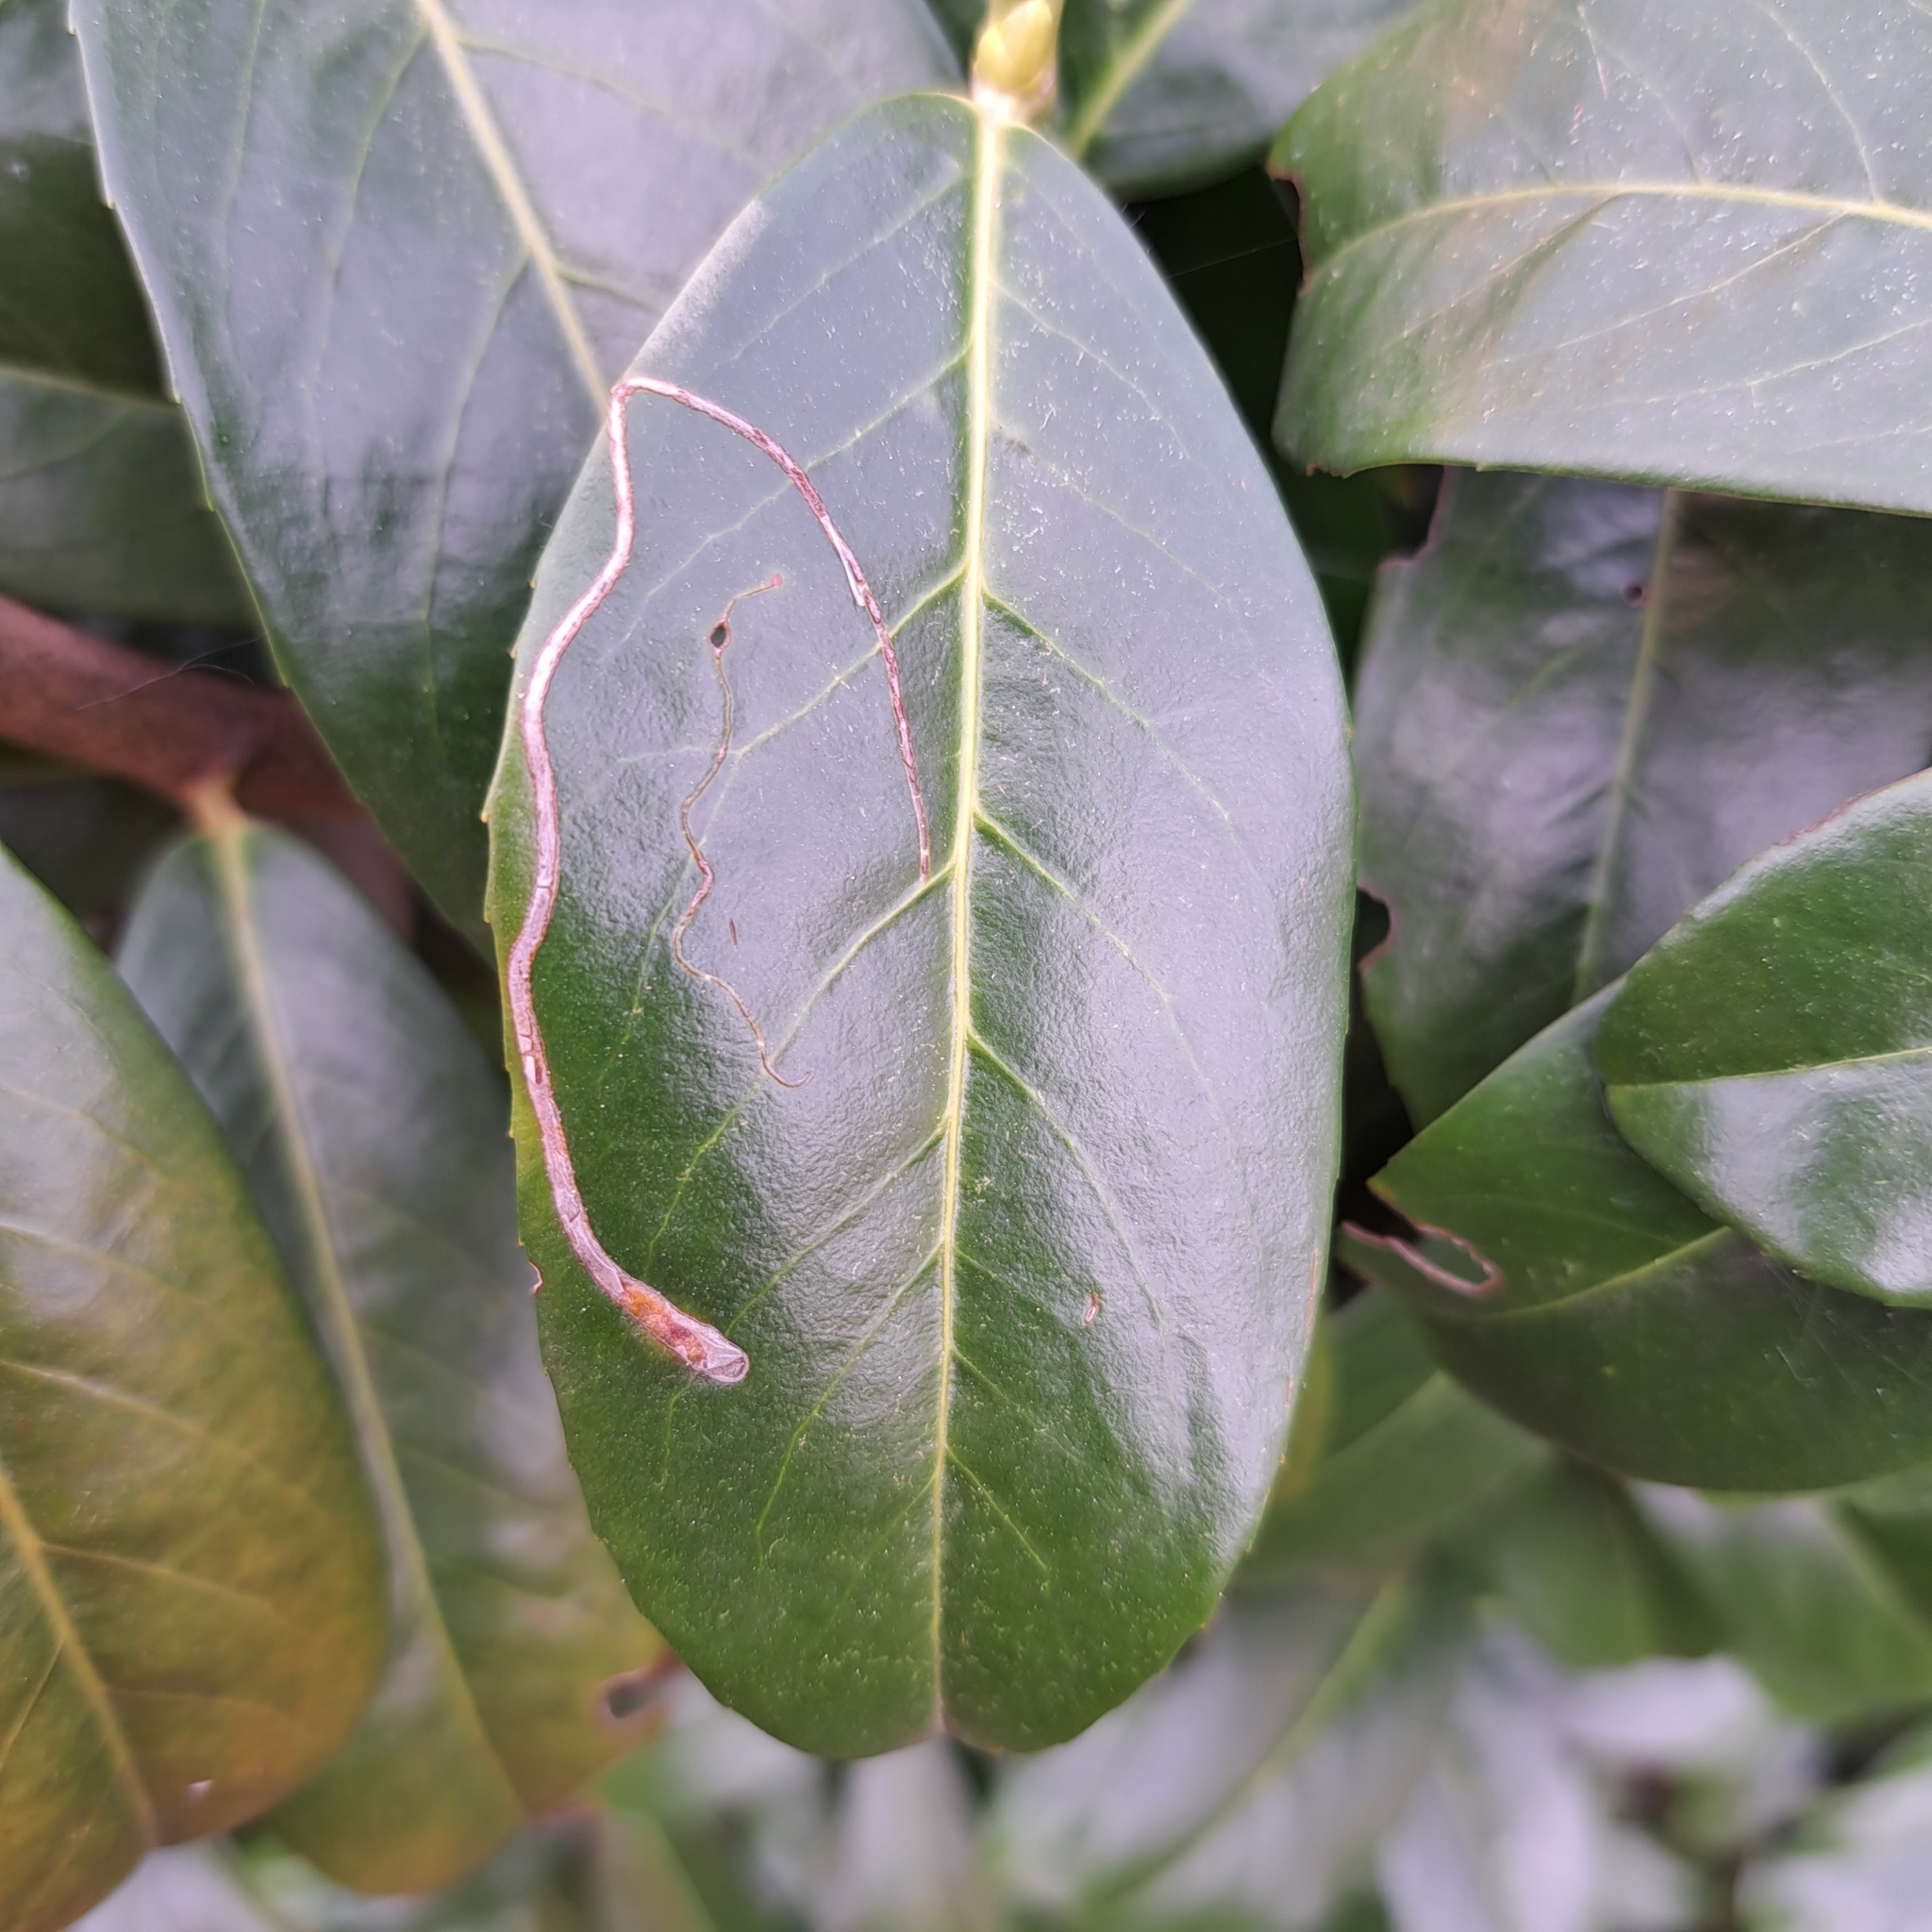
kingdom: Animalia
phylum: Arthropoda
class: Insecta
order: Lepidoptera
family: Lyonetiidae
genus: Lyonetia
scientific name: Lyonetia clerkella
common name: Apple leaf miner
